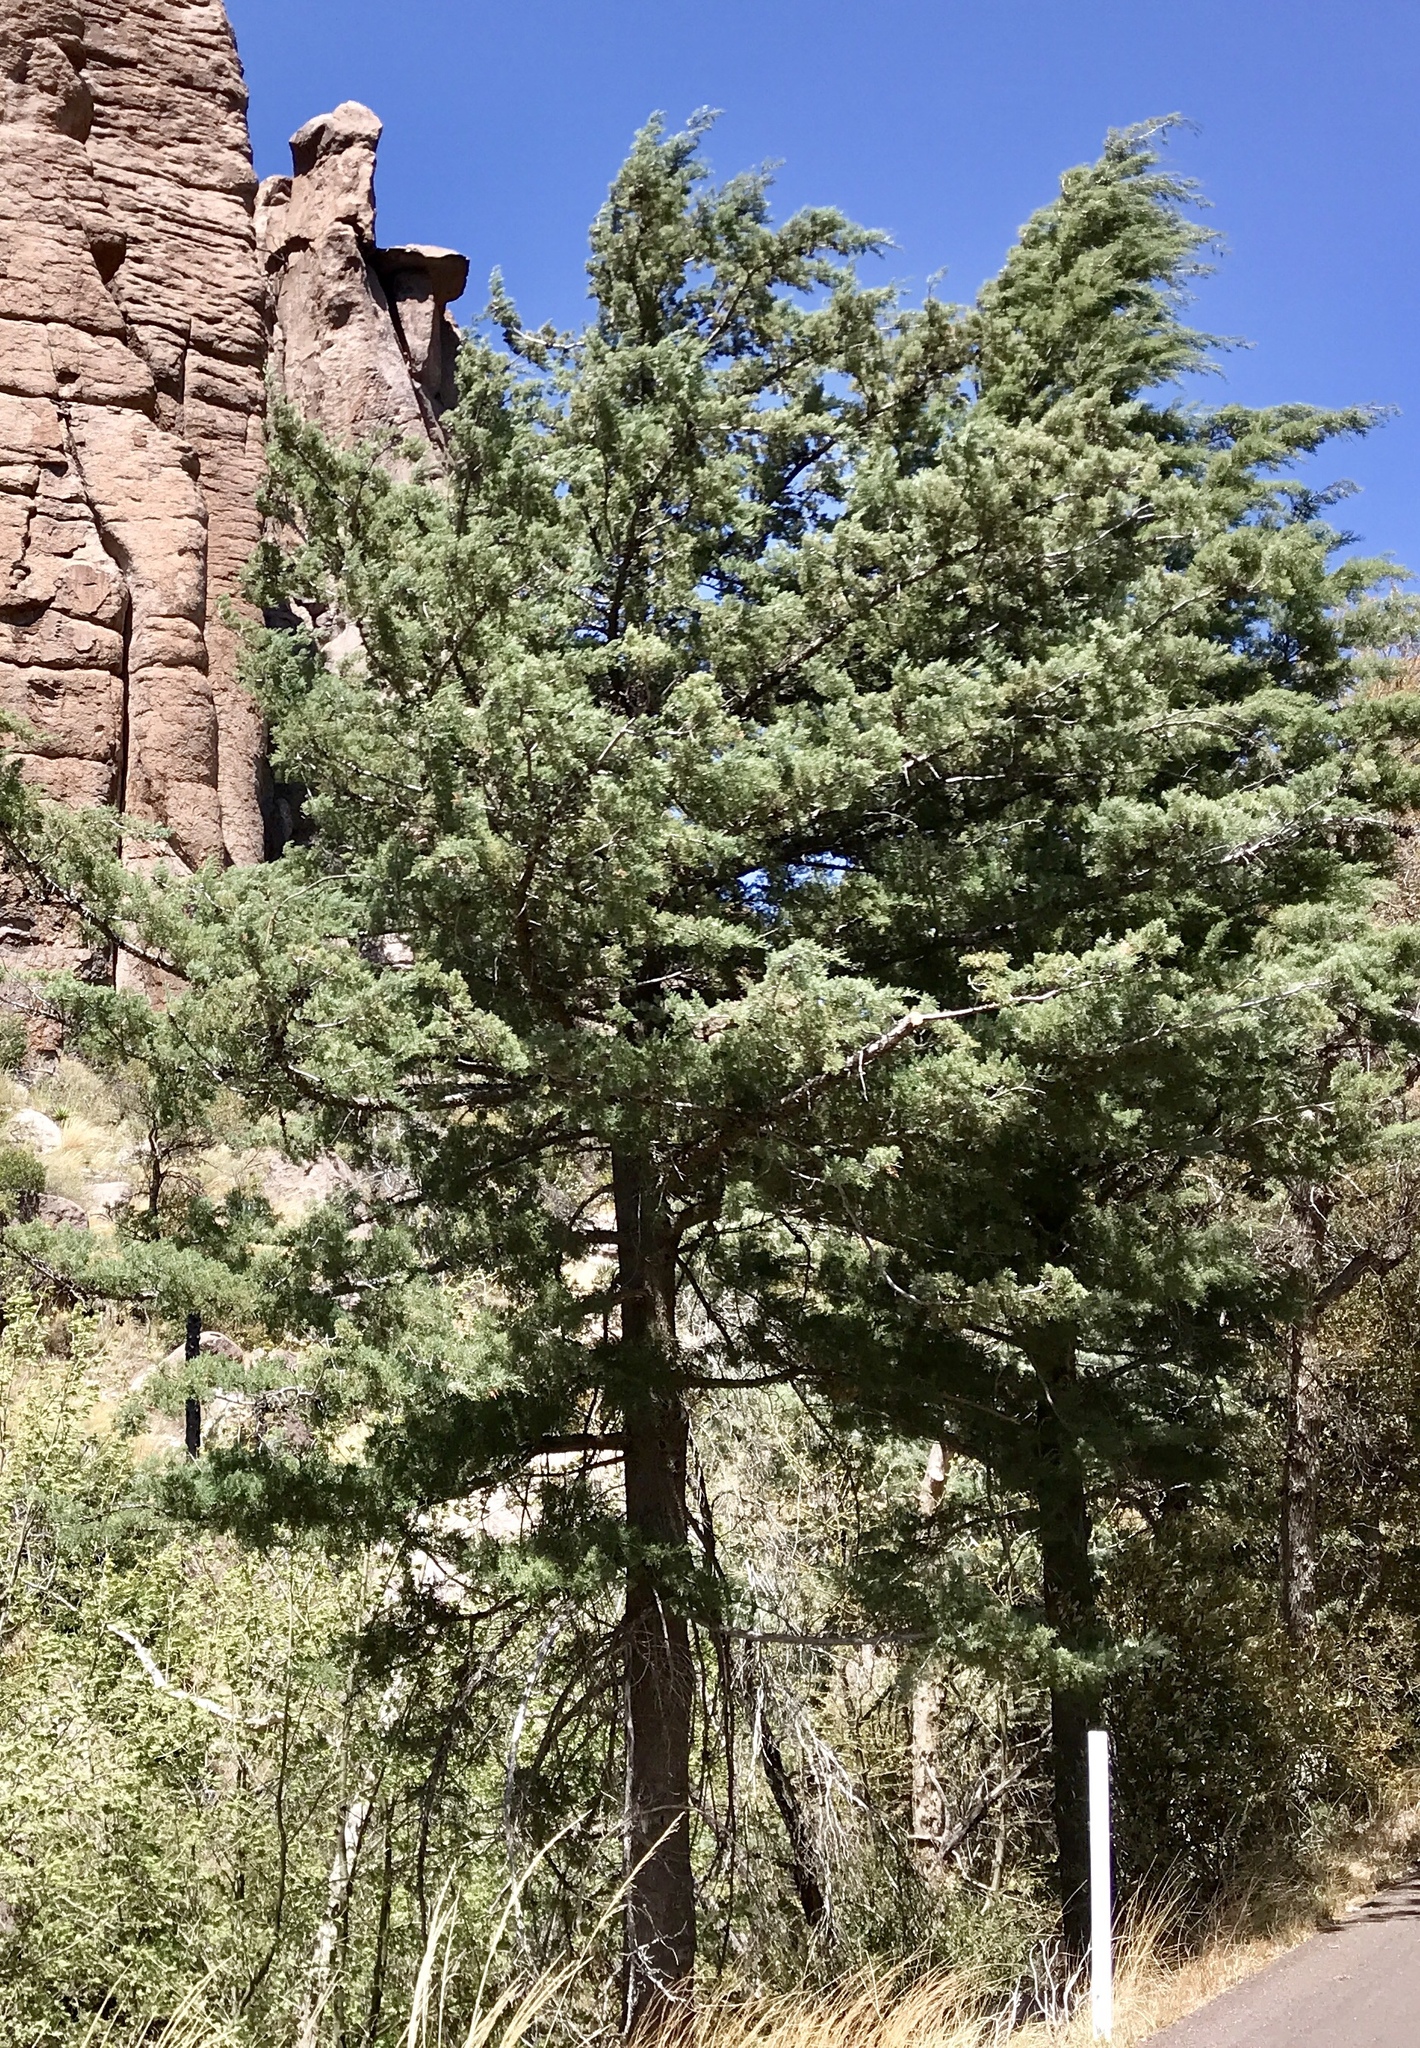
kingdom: Plantae
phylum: Tracheophyta
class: Pinopsida
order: Pinales
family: Cupressaceae
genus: Cupressus
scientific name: Cupressus arizonica
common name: Arizona cypress
